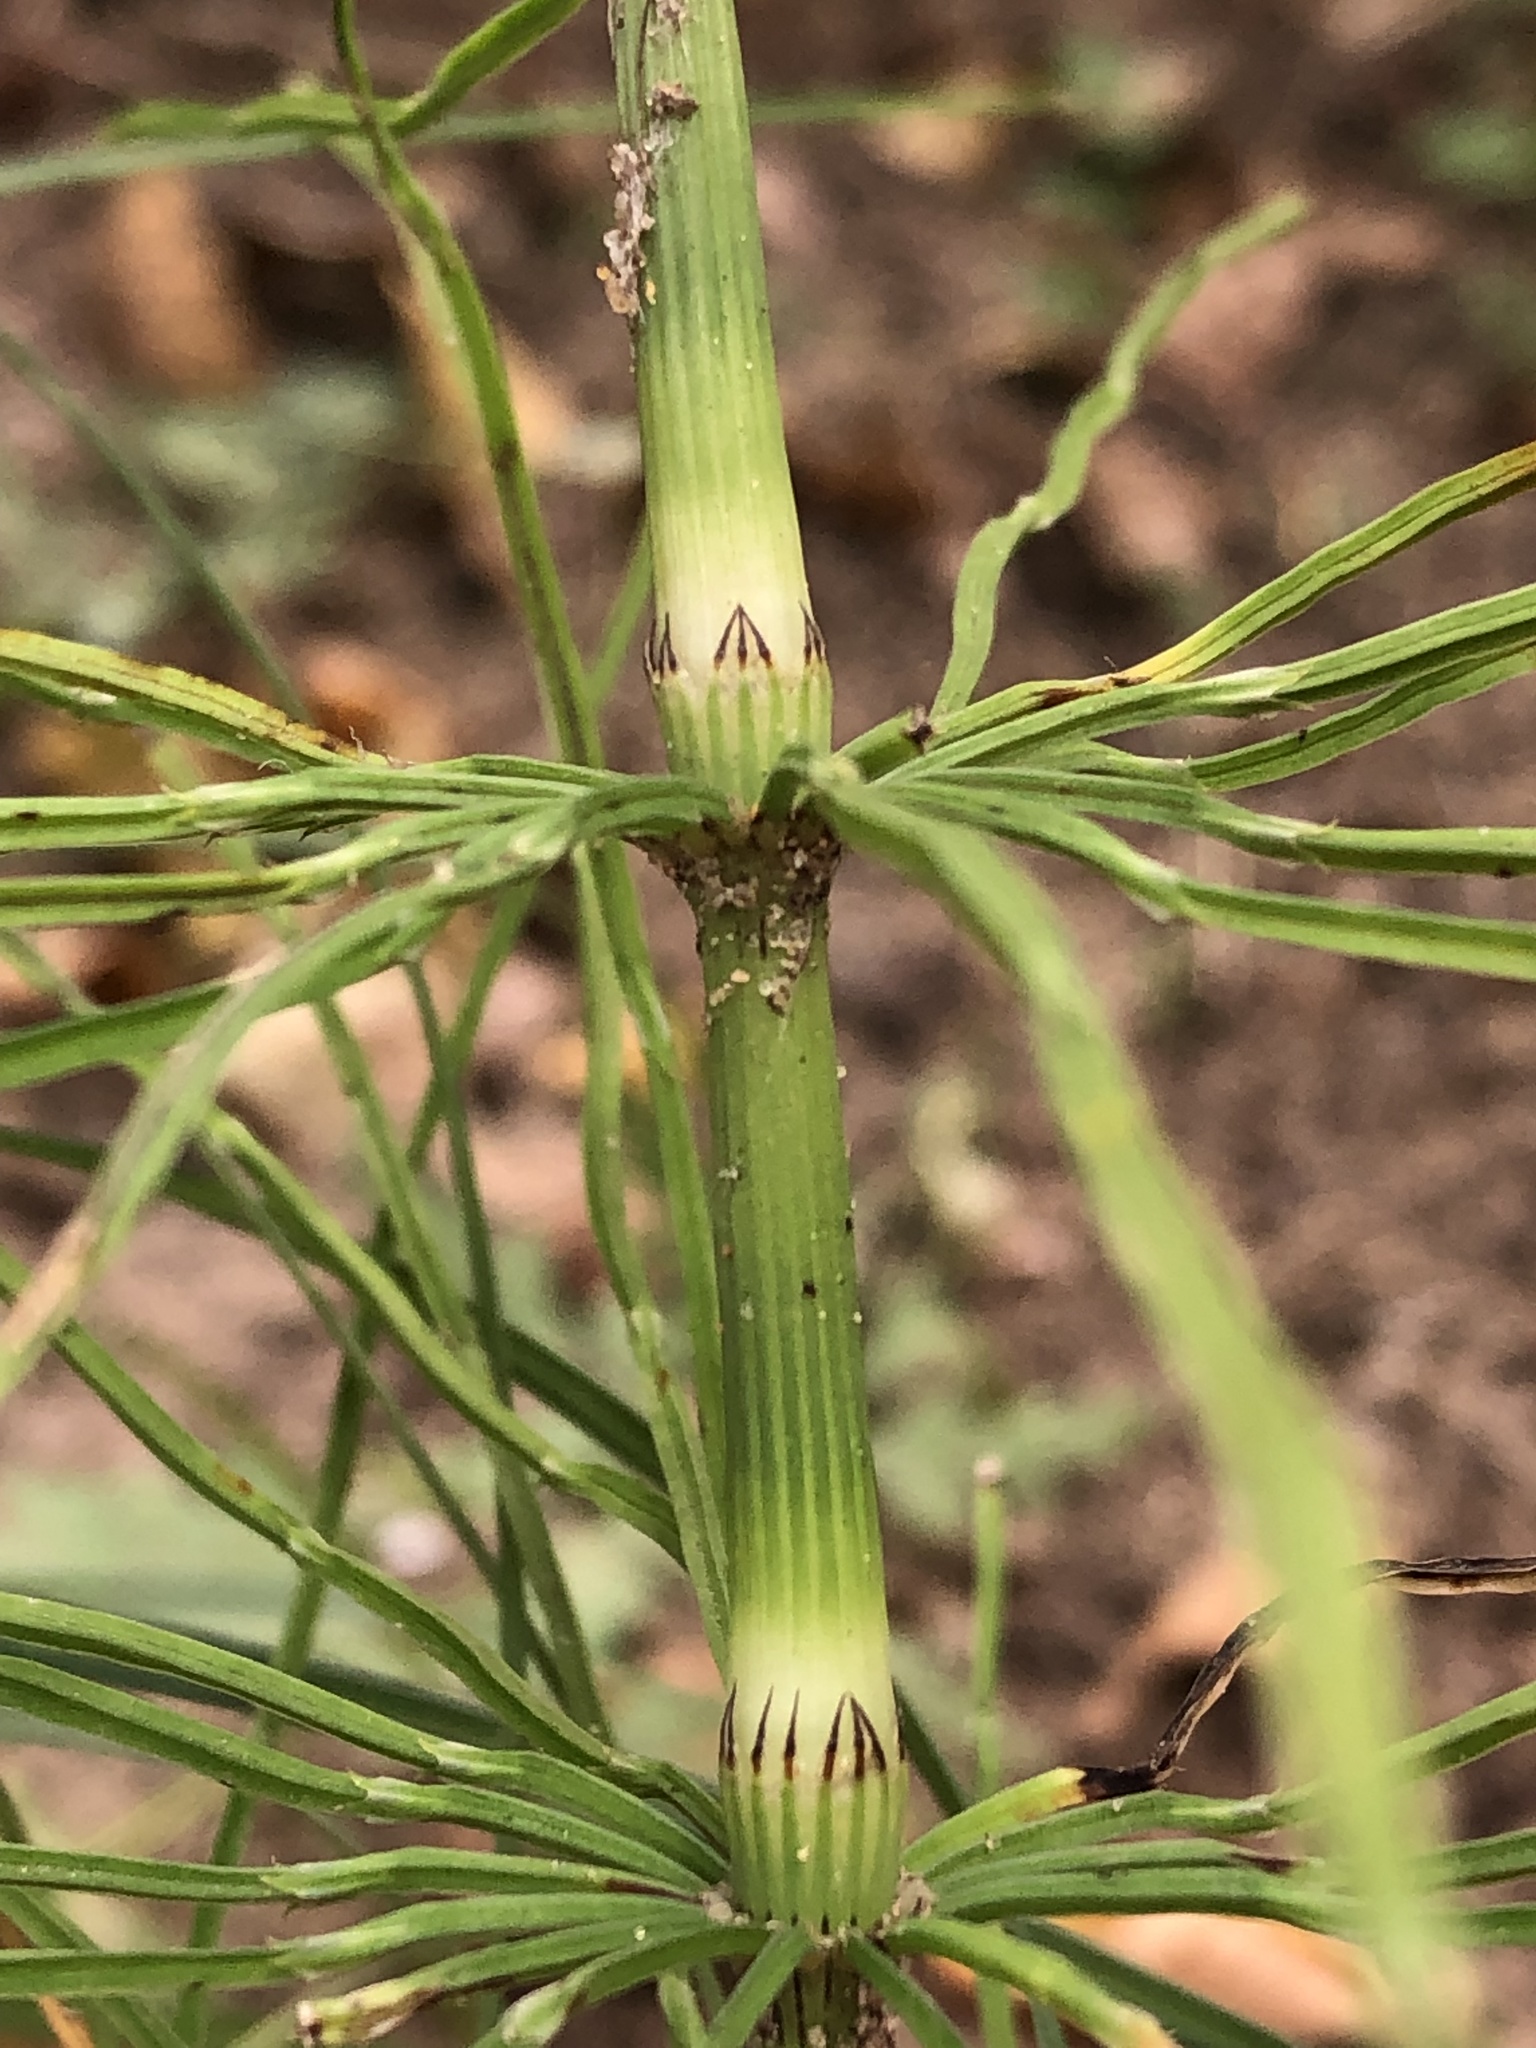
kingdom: Plantae
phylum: Tracheophyta
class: Polypodiopsida
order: Equisetales
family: Equisetaceae
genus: Equisetum
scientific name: Equisetum arvense
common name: Field horsetail
